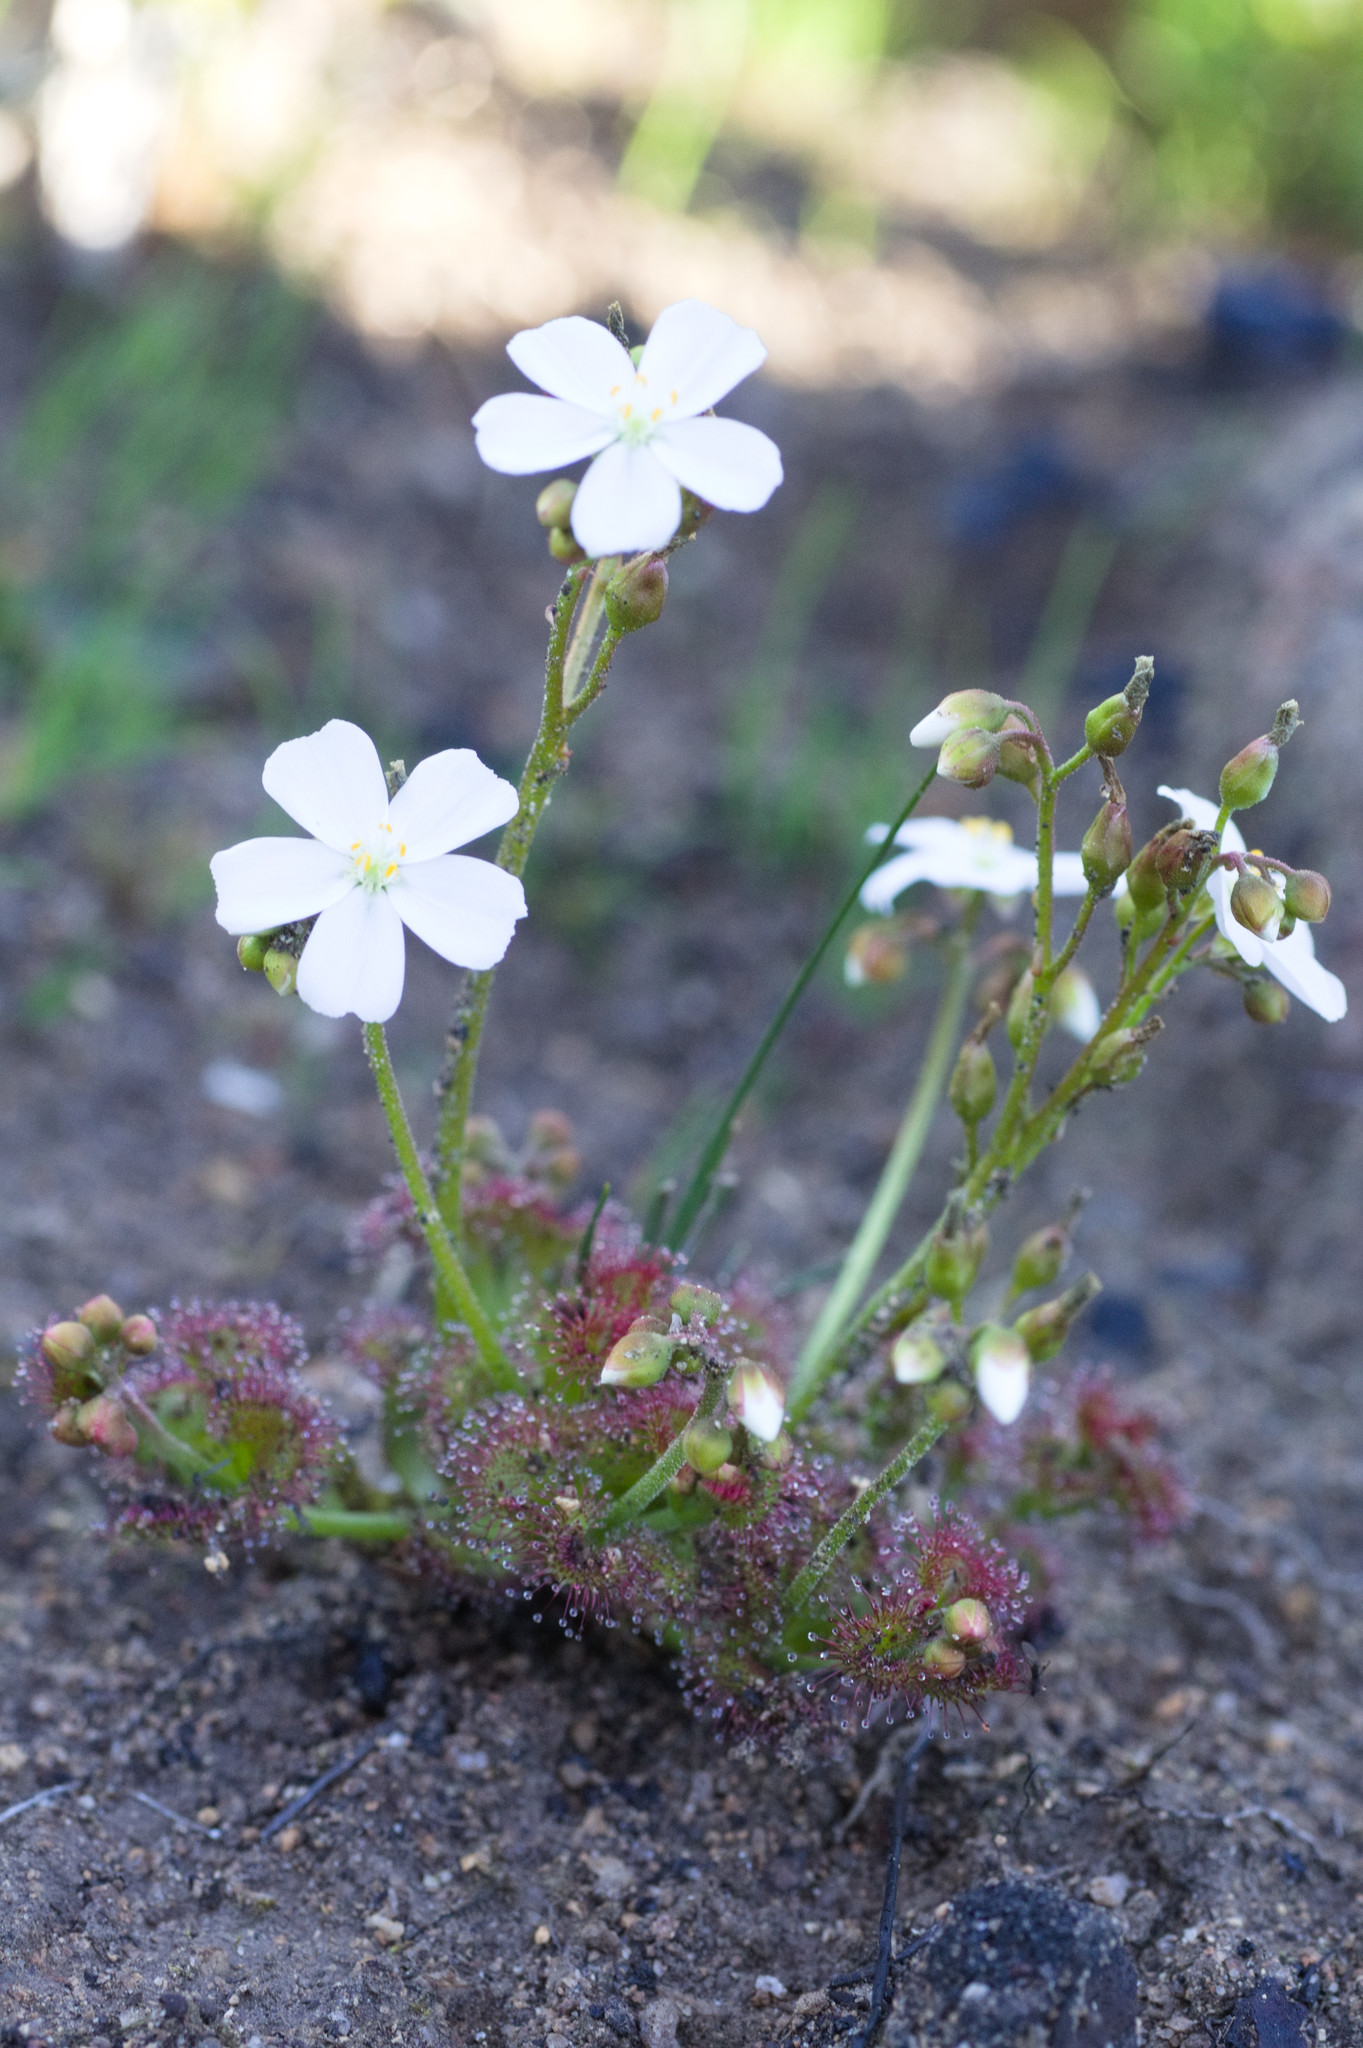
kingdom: Plantae
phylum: Tracheophyta
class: Magnoliopsida
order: Caryophyllales
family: Droseraceae
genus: Drosera
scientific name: Drosera stolonifera
